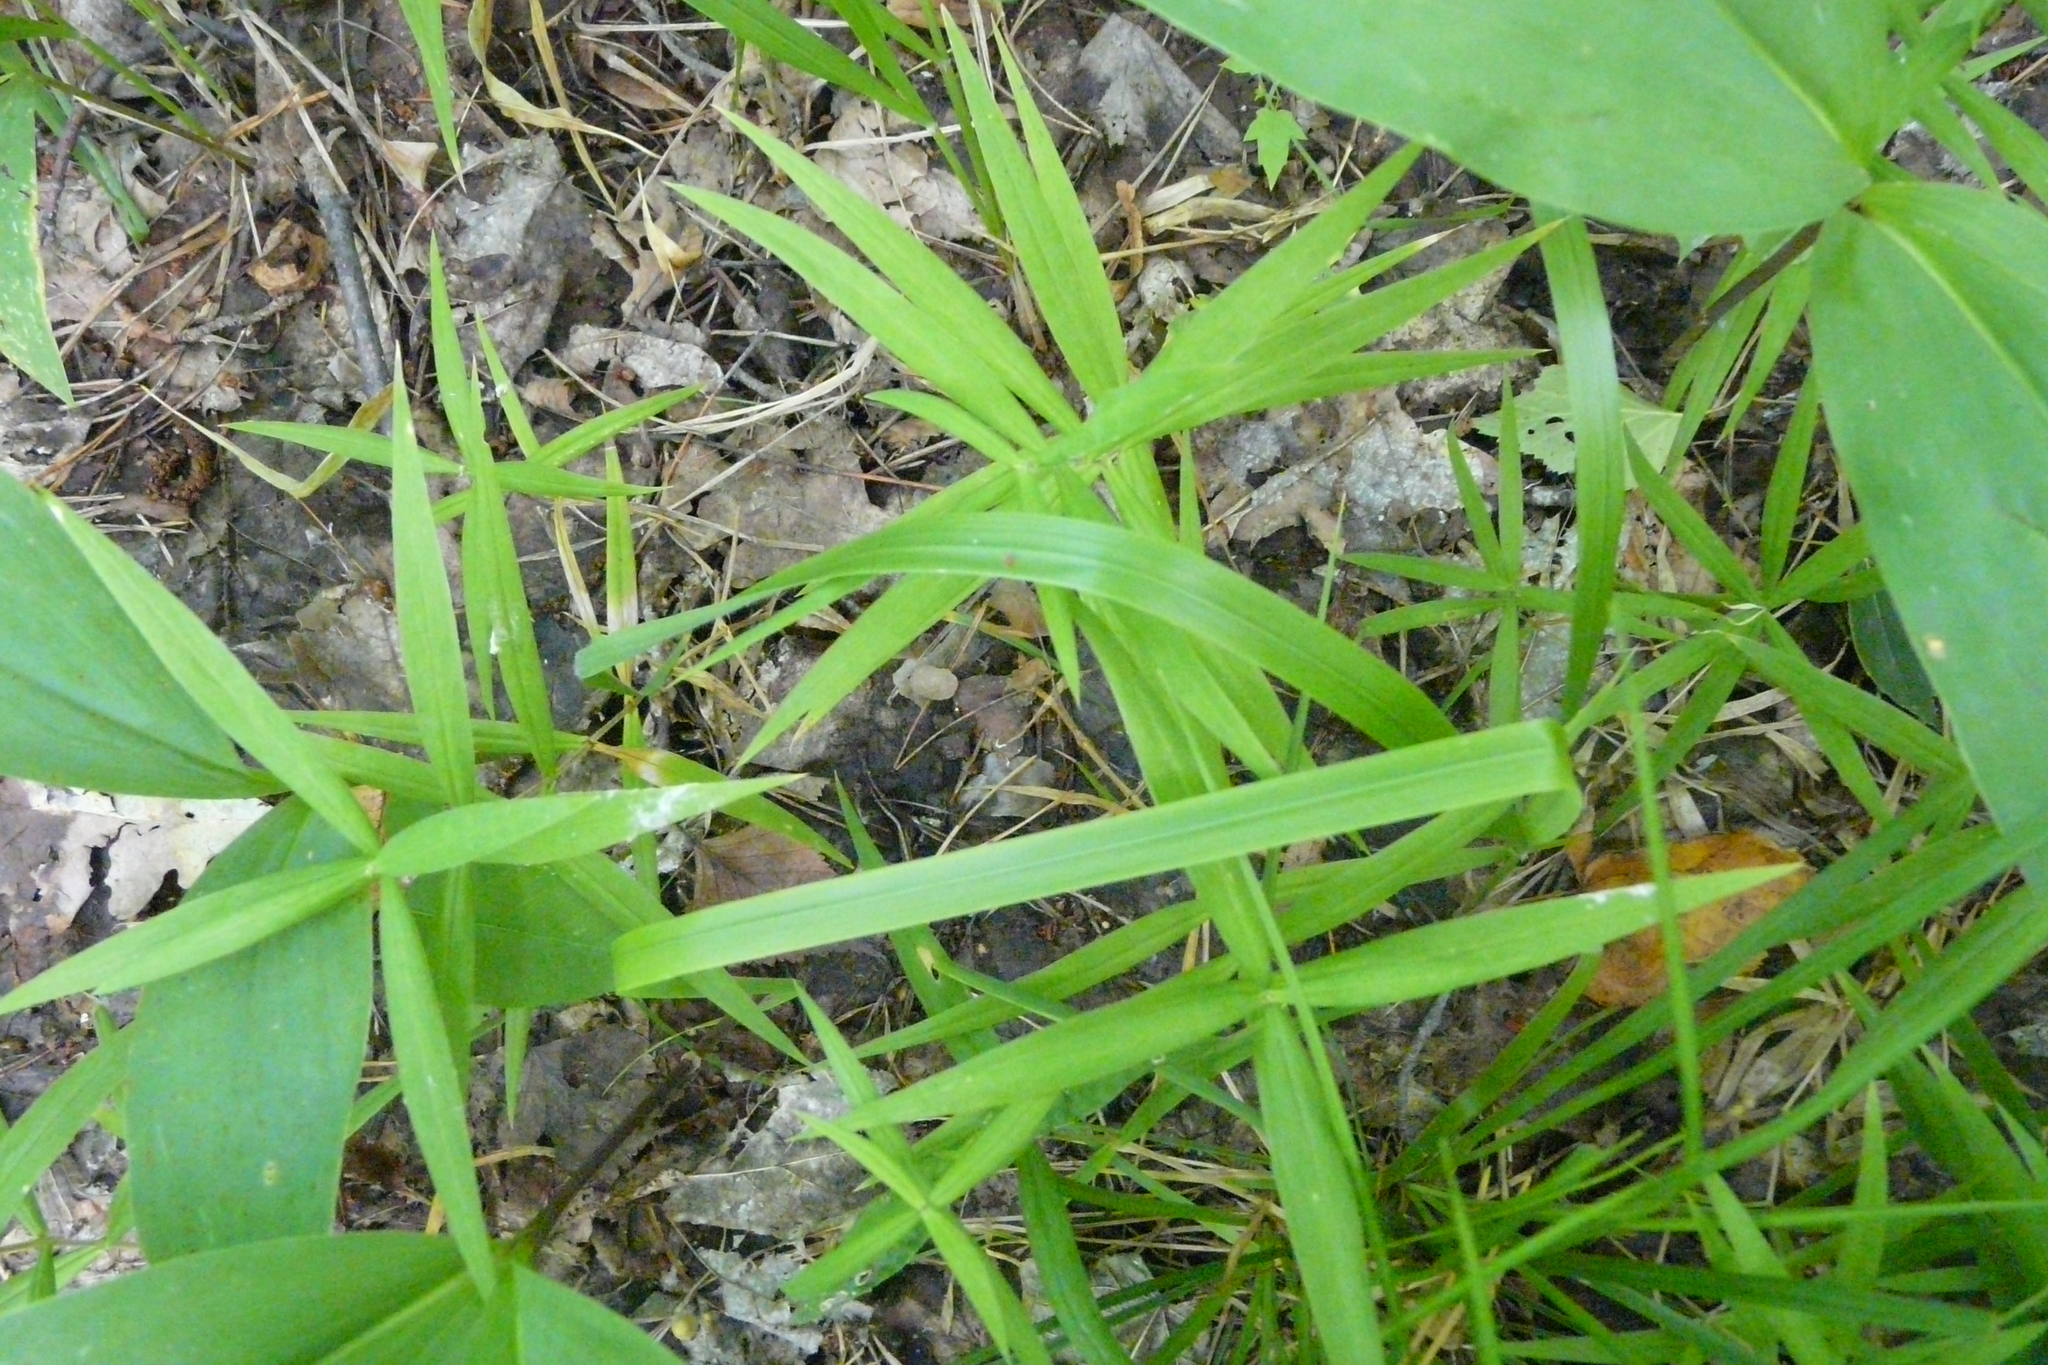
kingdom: Plantae
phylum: Tracheophyta
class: Magnoliopsida
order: Caryophyllales
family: Caryophyllaceae
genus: Rabelera
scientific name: Rabelera holostea
